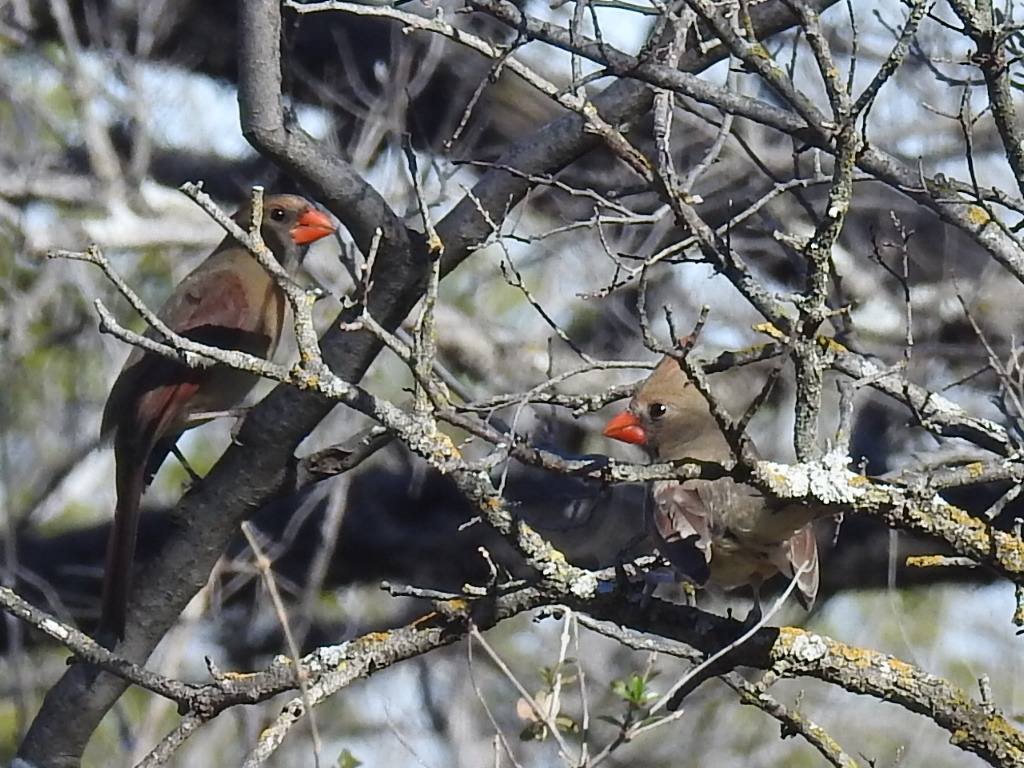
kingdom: Animalia
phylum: Chordata
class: Aves
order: Passeriformes
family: Cardinalidae
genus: Cardinalis
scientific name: Cardinalis cardinalis
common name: Northern cardinal
